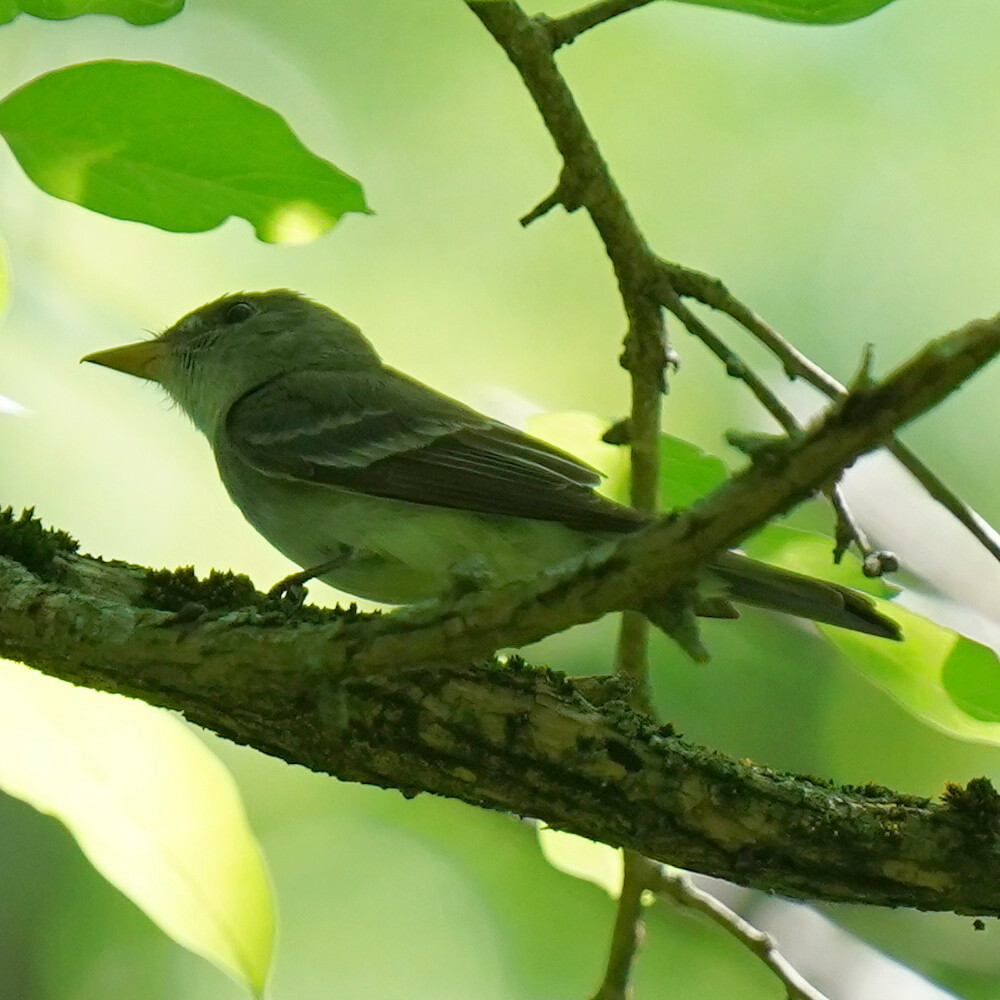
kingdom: Animalia
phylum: Chordata
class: Aves
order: Passeriformes
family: Tyrannidae
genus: Contopus
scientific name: Contopus virens
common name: Eastern wood-pewee
